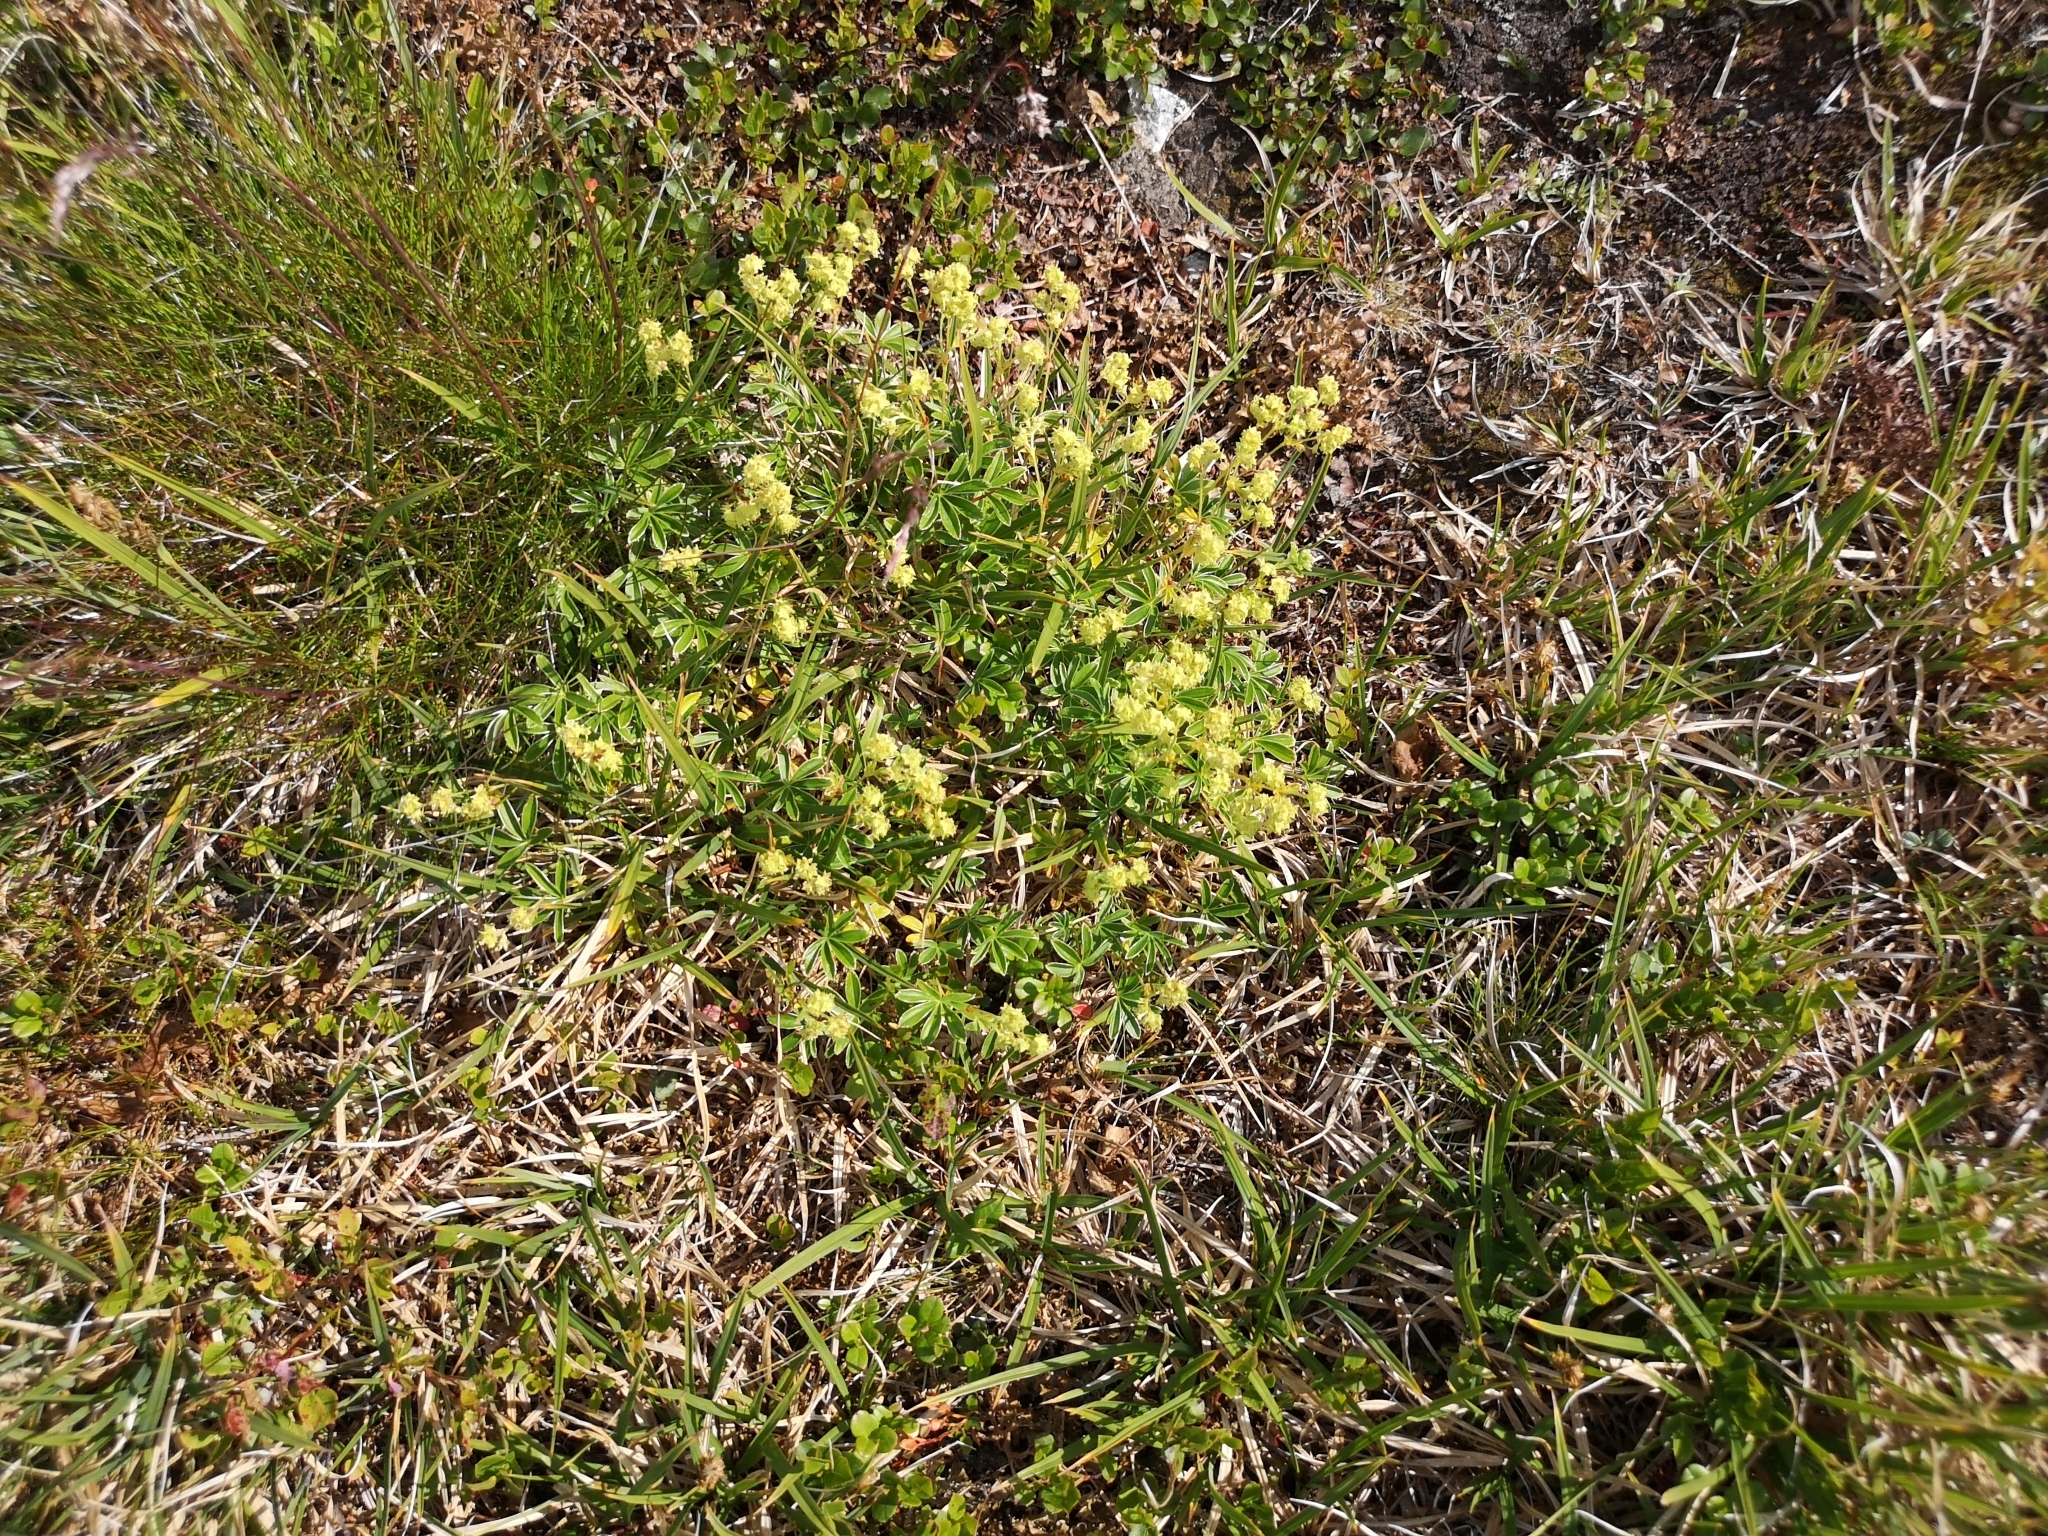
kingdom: Plantae
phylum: Tracheophyta
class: Magnoliopsida
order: Rosales
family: Rosaceae
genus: Alchemilla
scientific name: Alchemilla alpina
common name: Alpine lady's-mantle
